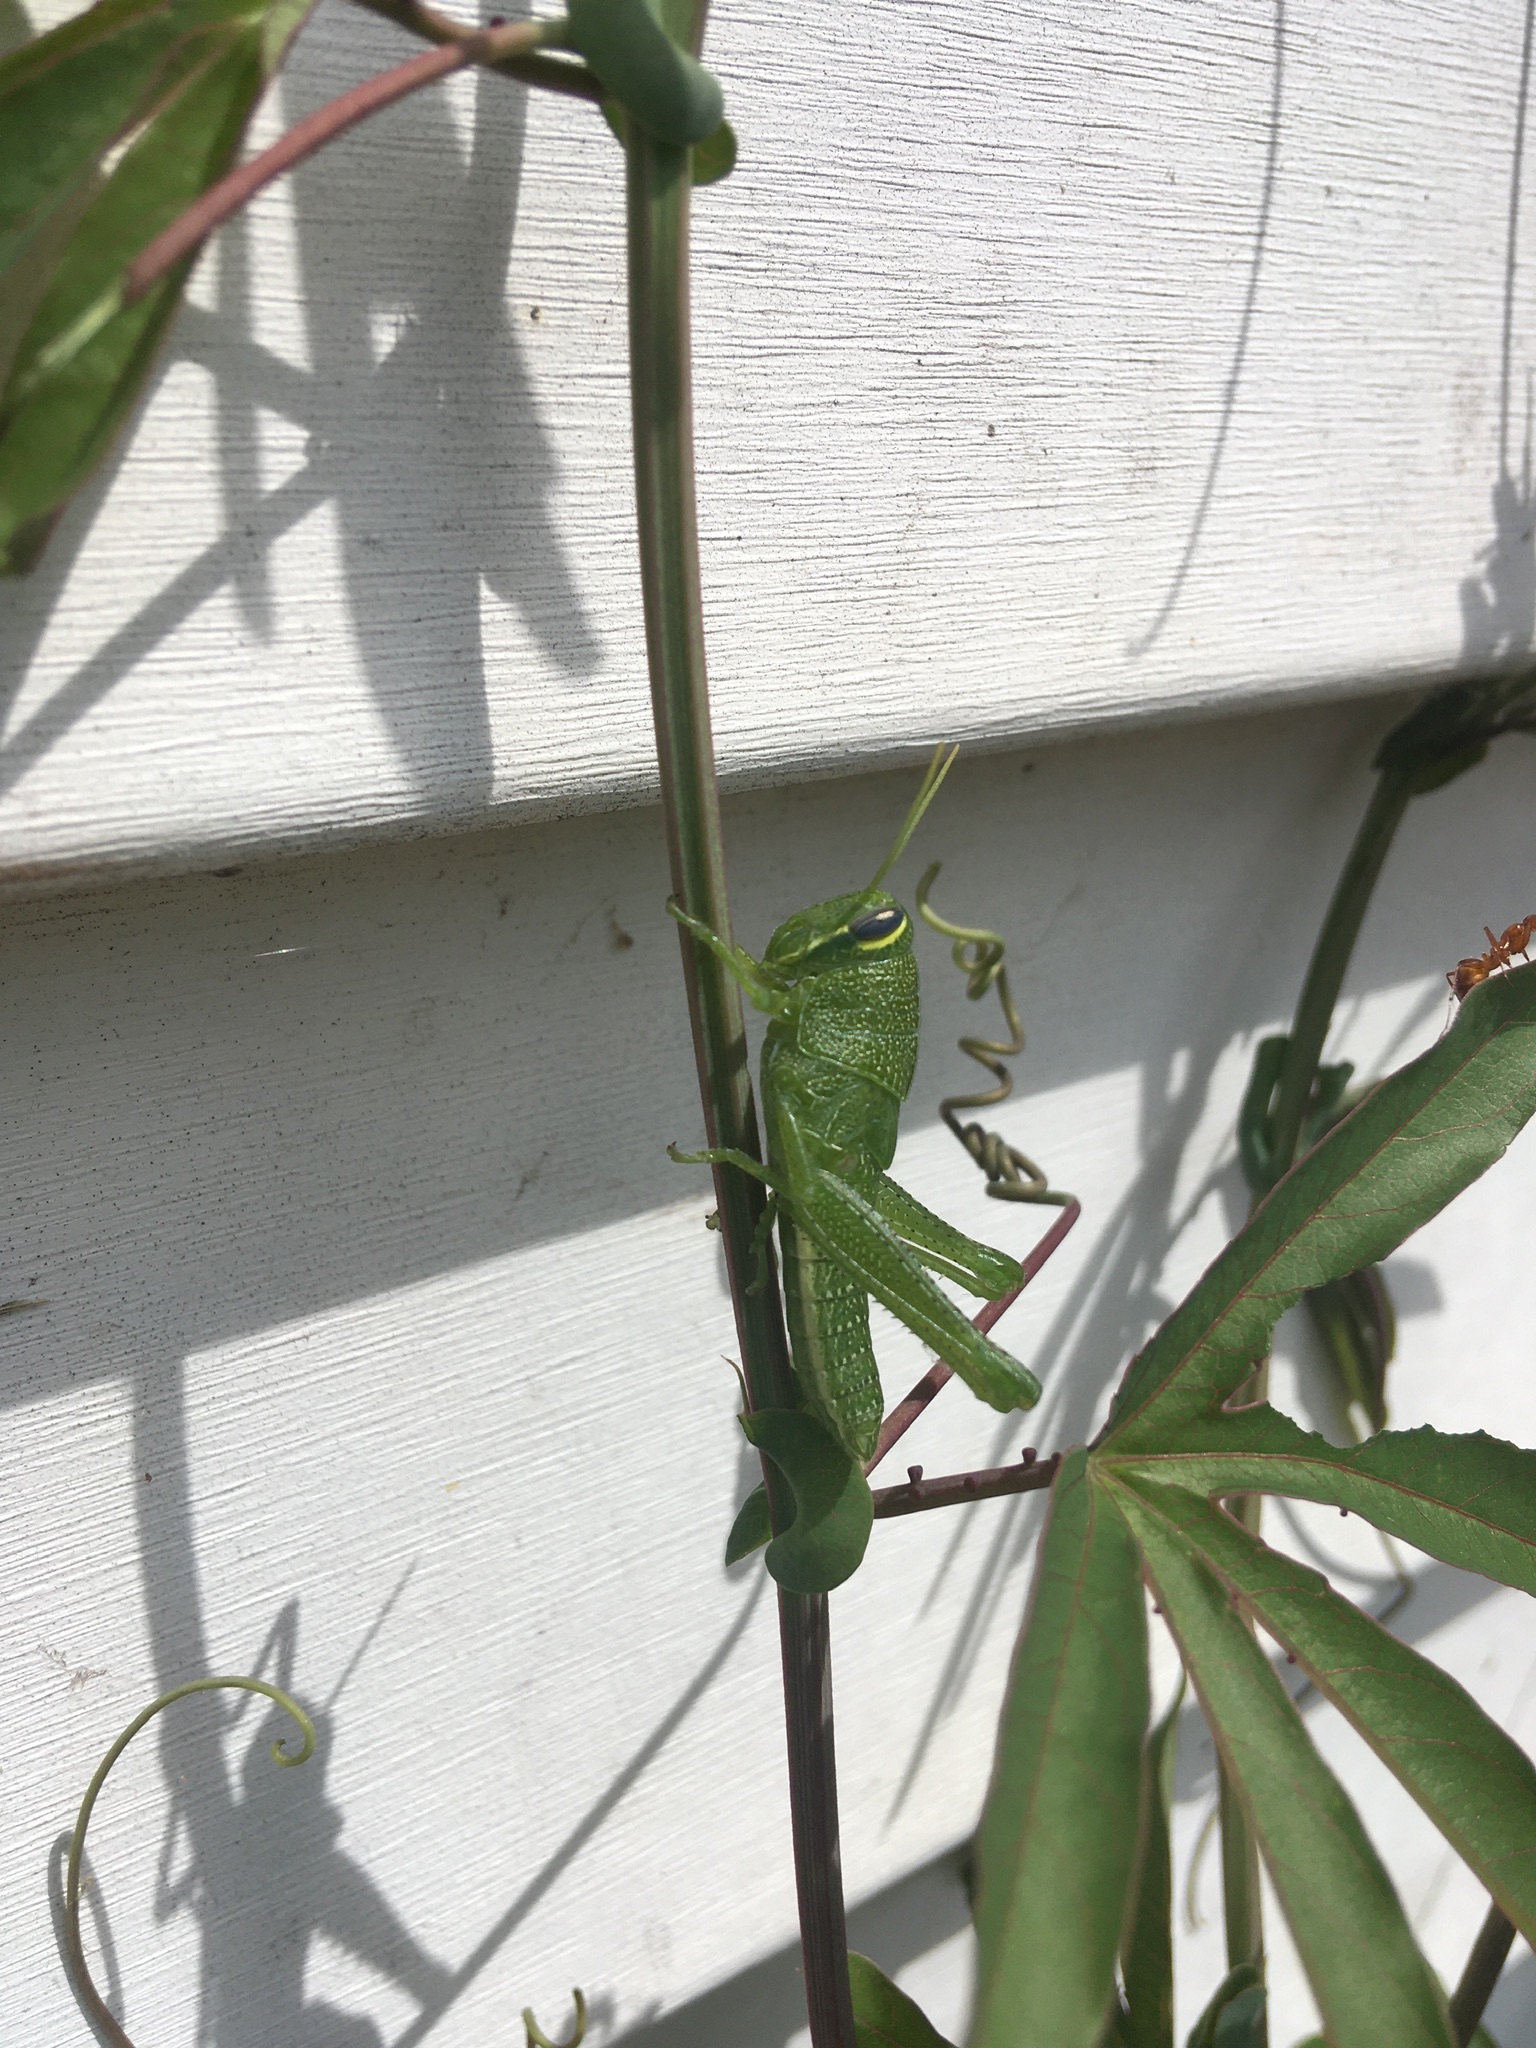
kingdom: Animalia
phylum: Arthropoda
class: Insecta
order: Orthoptera
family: Acrididae
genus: Schistocerca
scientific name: Schistocerca obscura
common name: Obscure bird grasshopper
